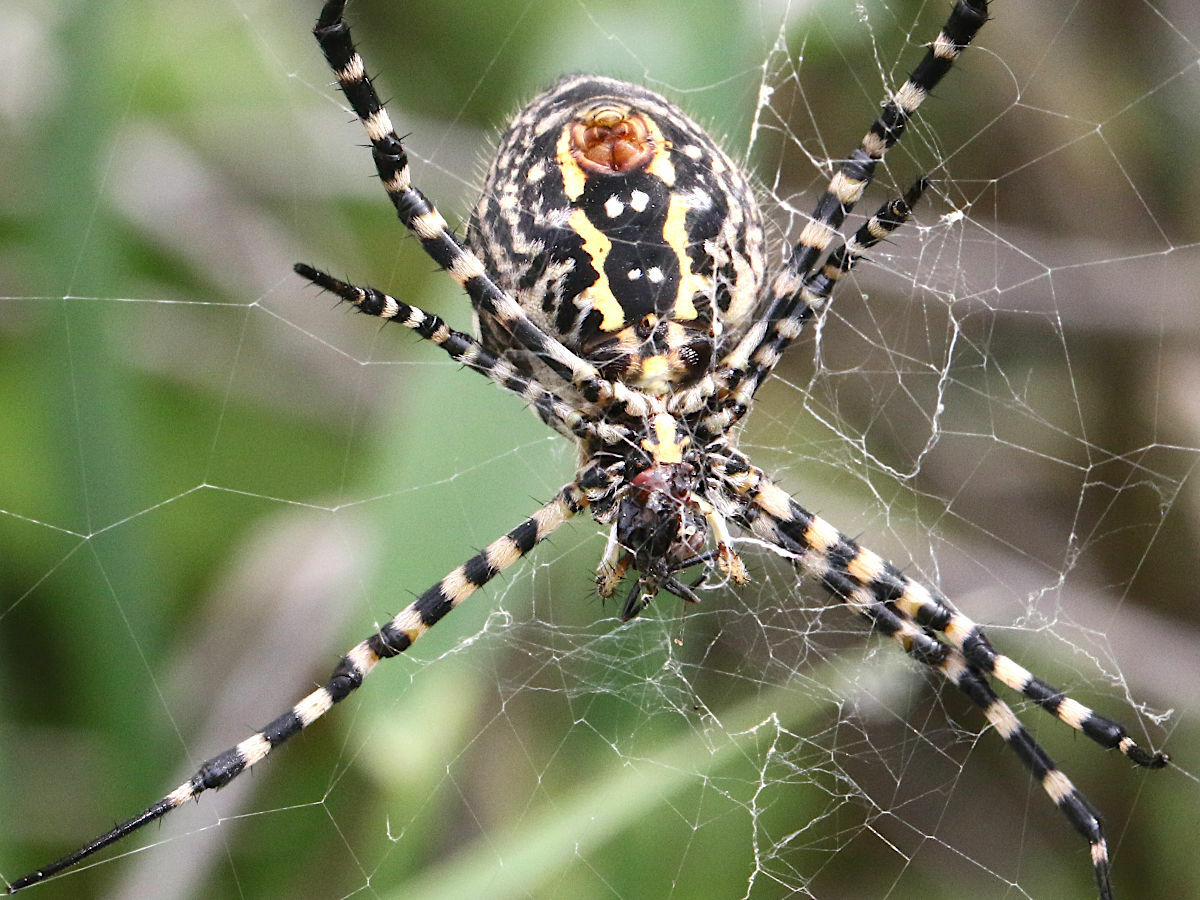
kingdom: Animalia
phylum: Arthropoda
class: Arachnida
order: Araneae
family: Araneidae
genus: Argiope
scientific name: Argiope trifasciata
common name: Banded garden spider
